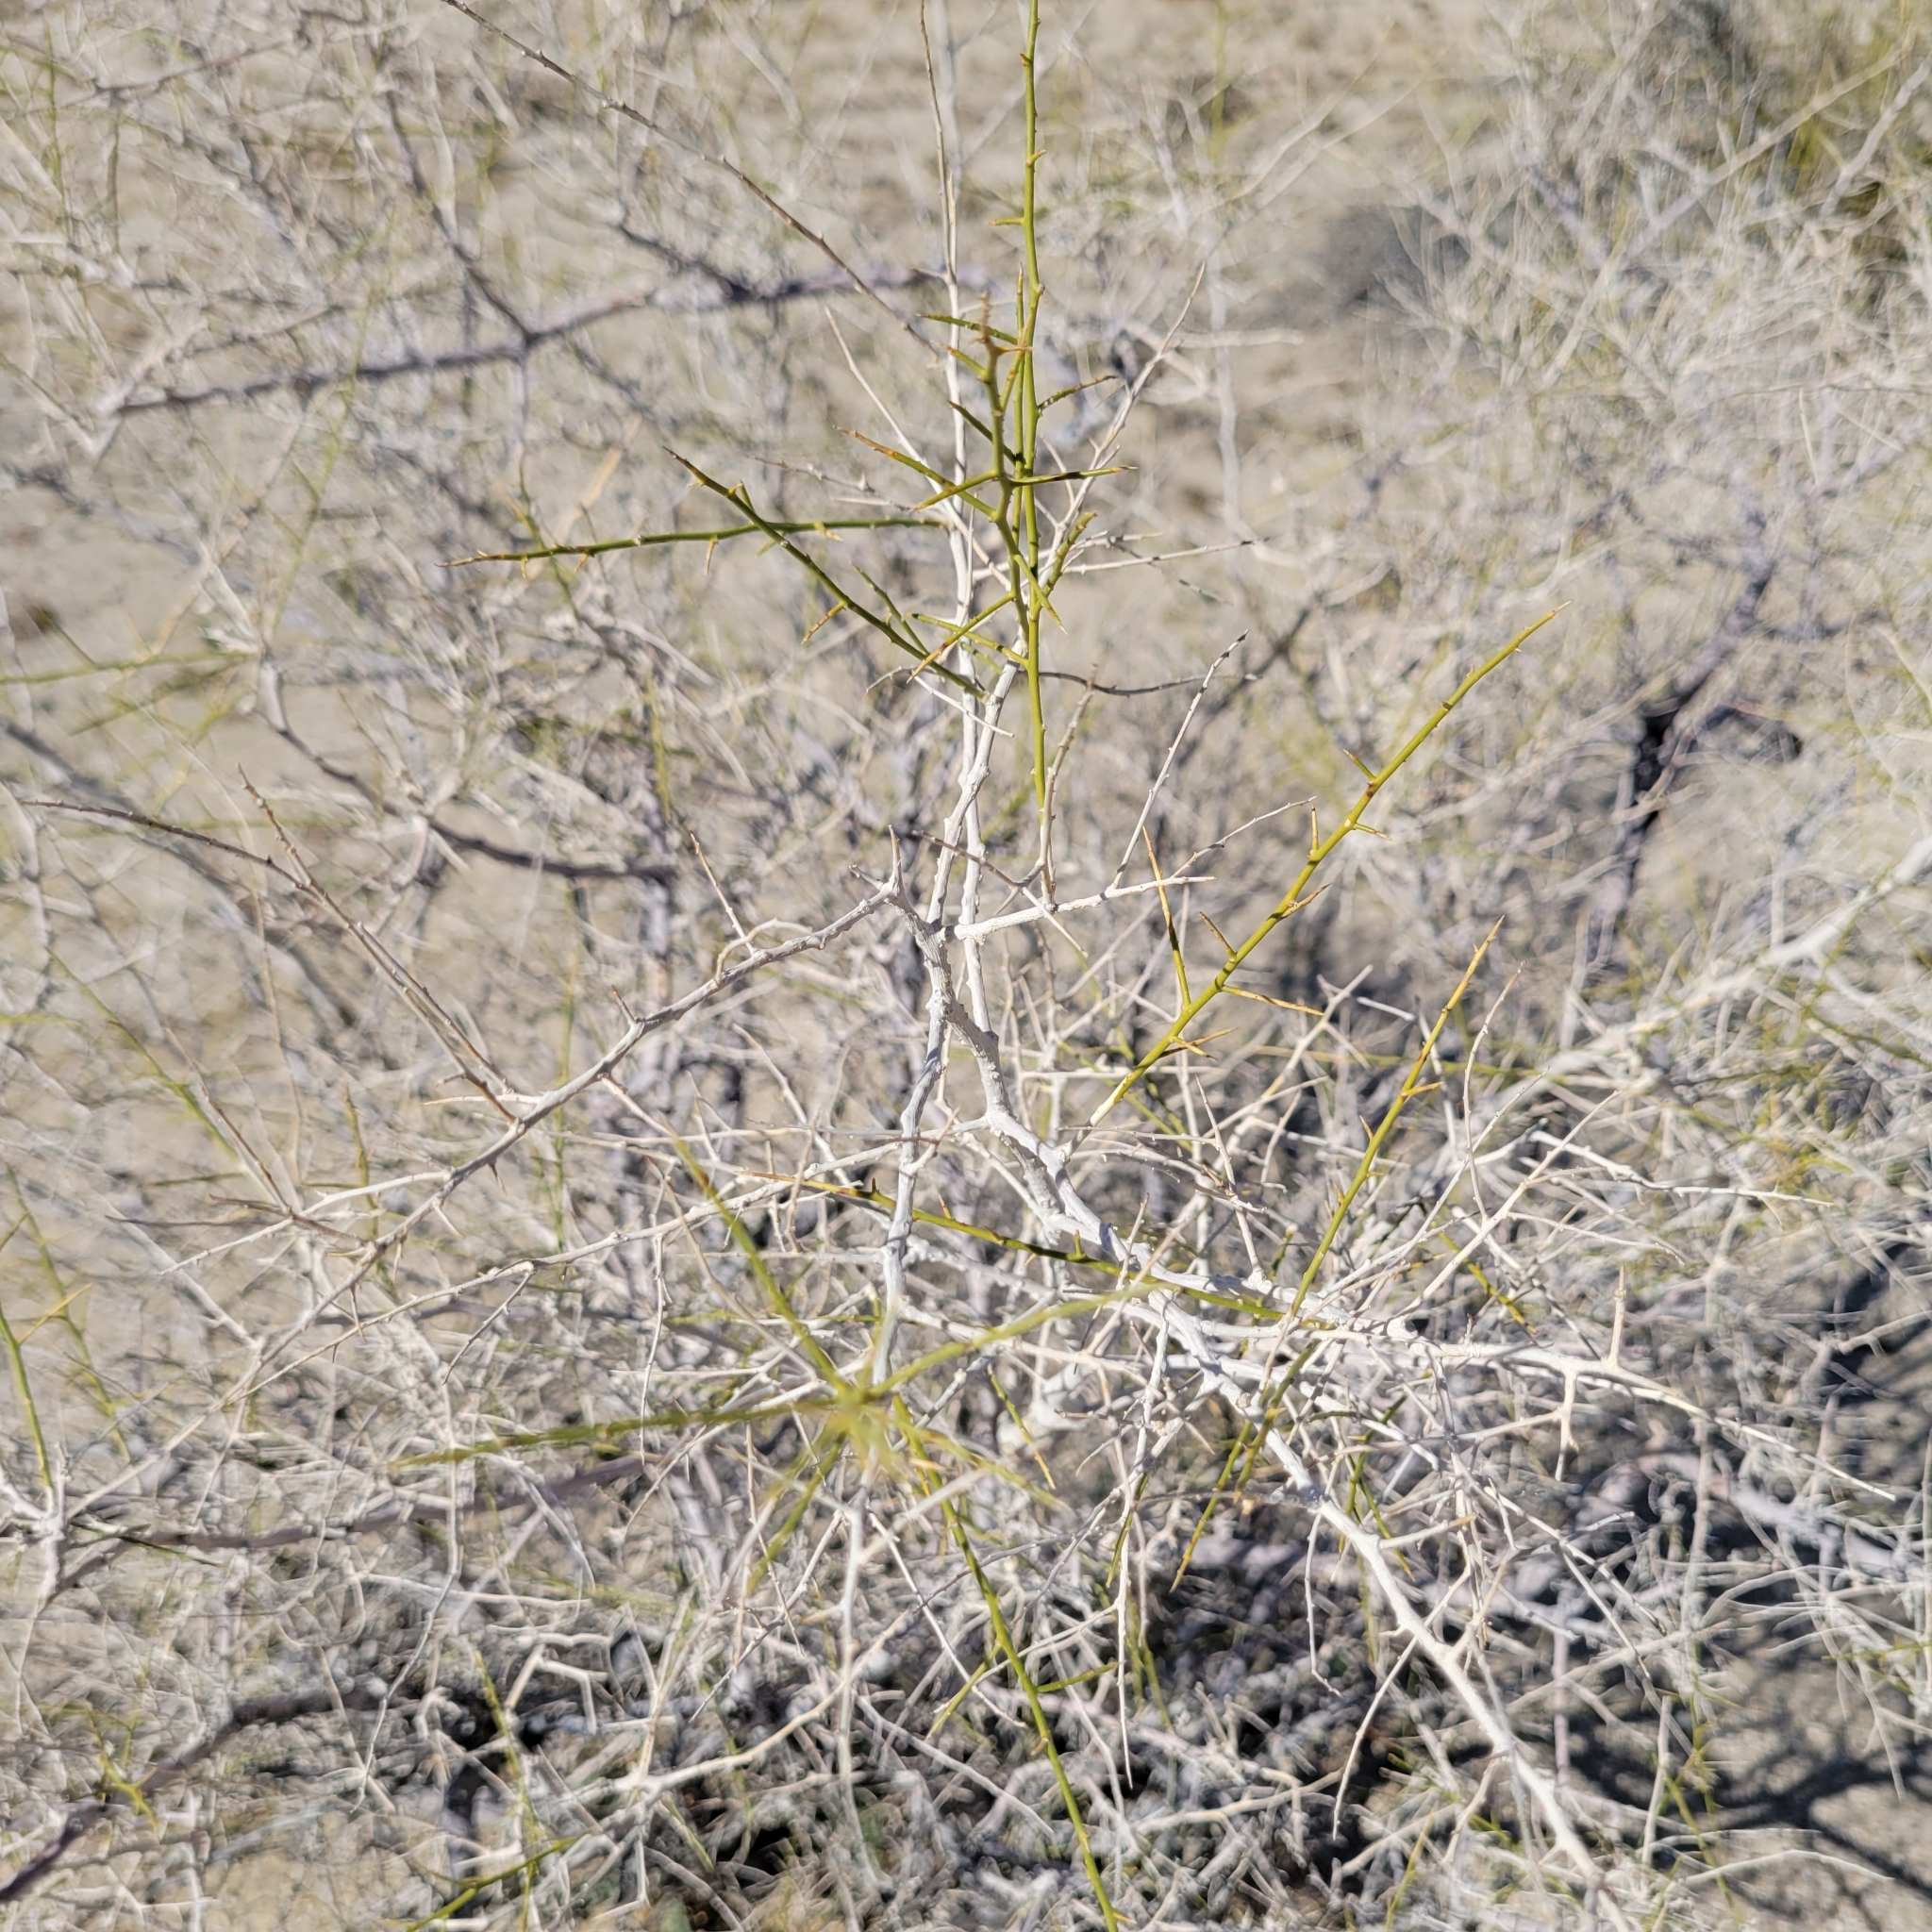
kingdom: Plantae
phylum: Tracheophyta
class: Magnoliopsida
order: Fabales
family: Fabaceae
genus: Psorothamnus
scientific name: Psorothamnus schottii
